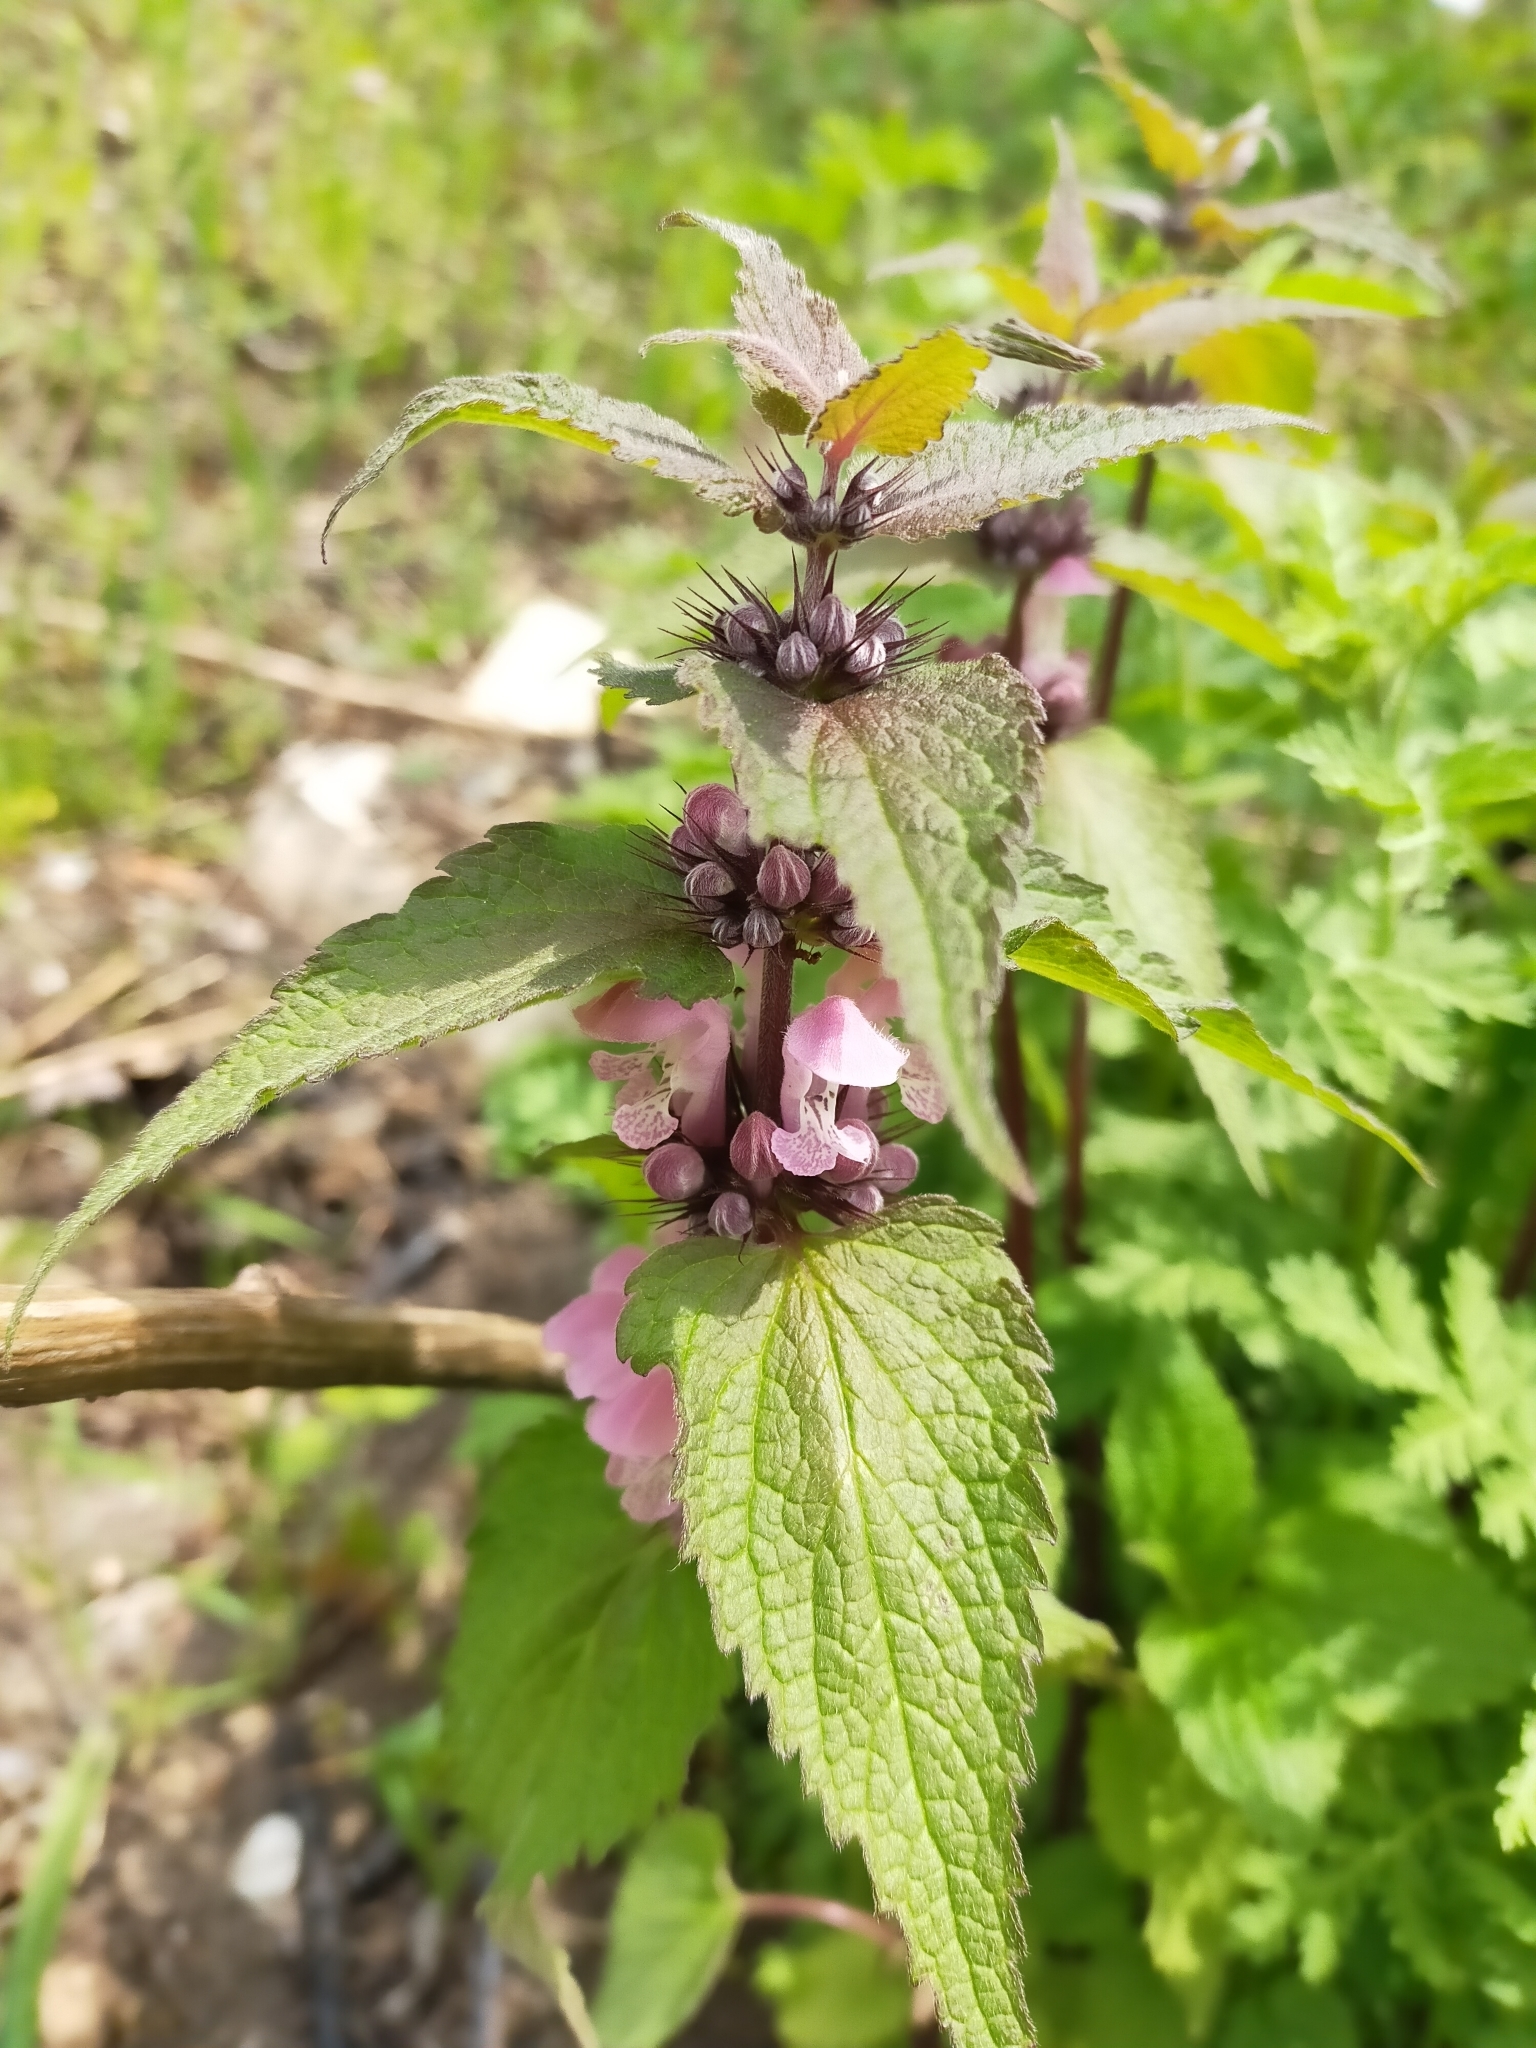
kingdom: Plantae
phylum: Tracheophyta
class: Magnoliopsida
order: Lamiales
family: Lamiaceae
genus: Lamium
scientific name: Lamium album
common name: White dead-nettle
